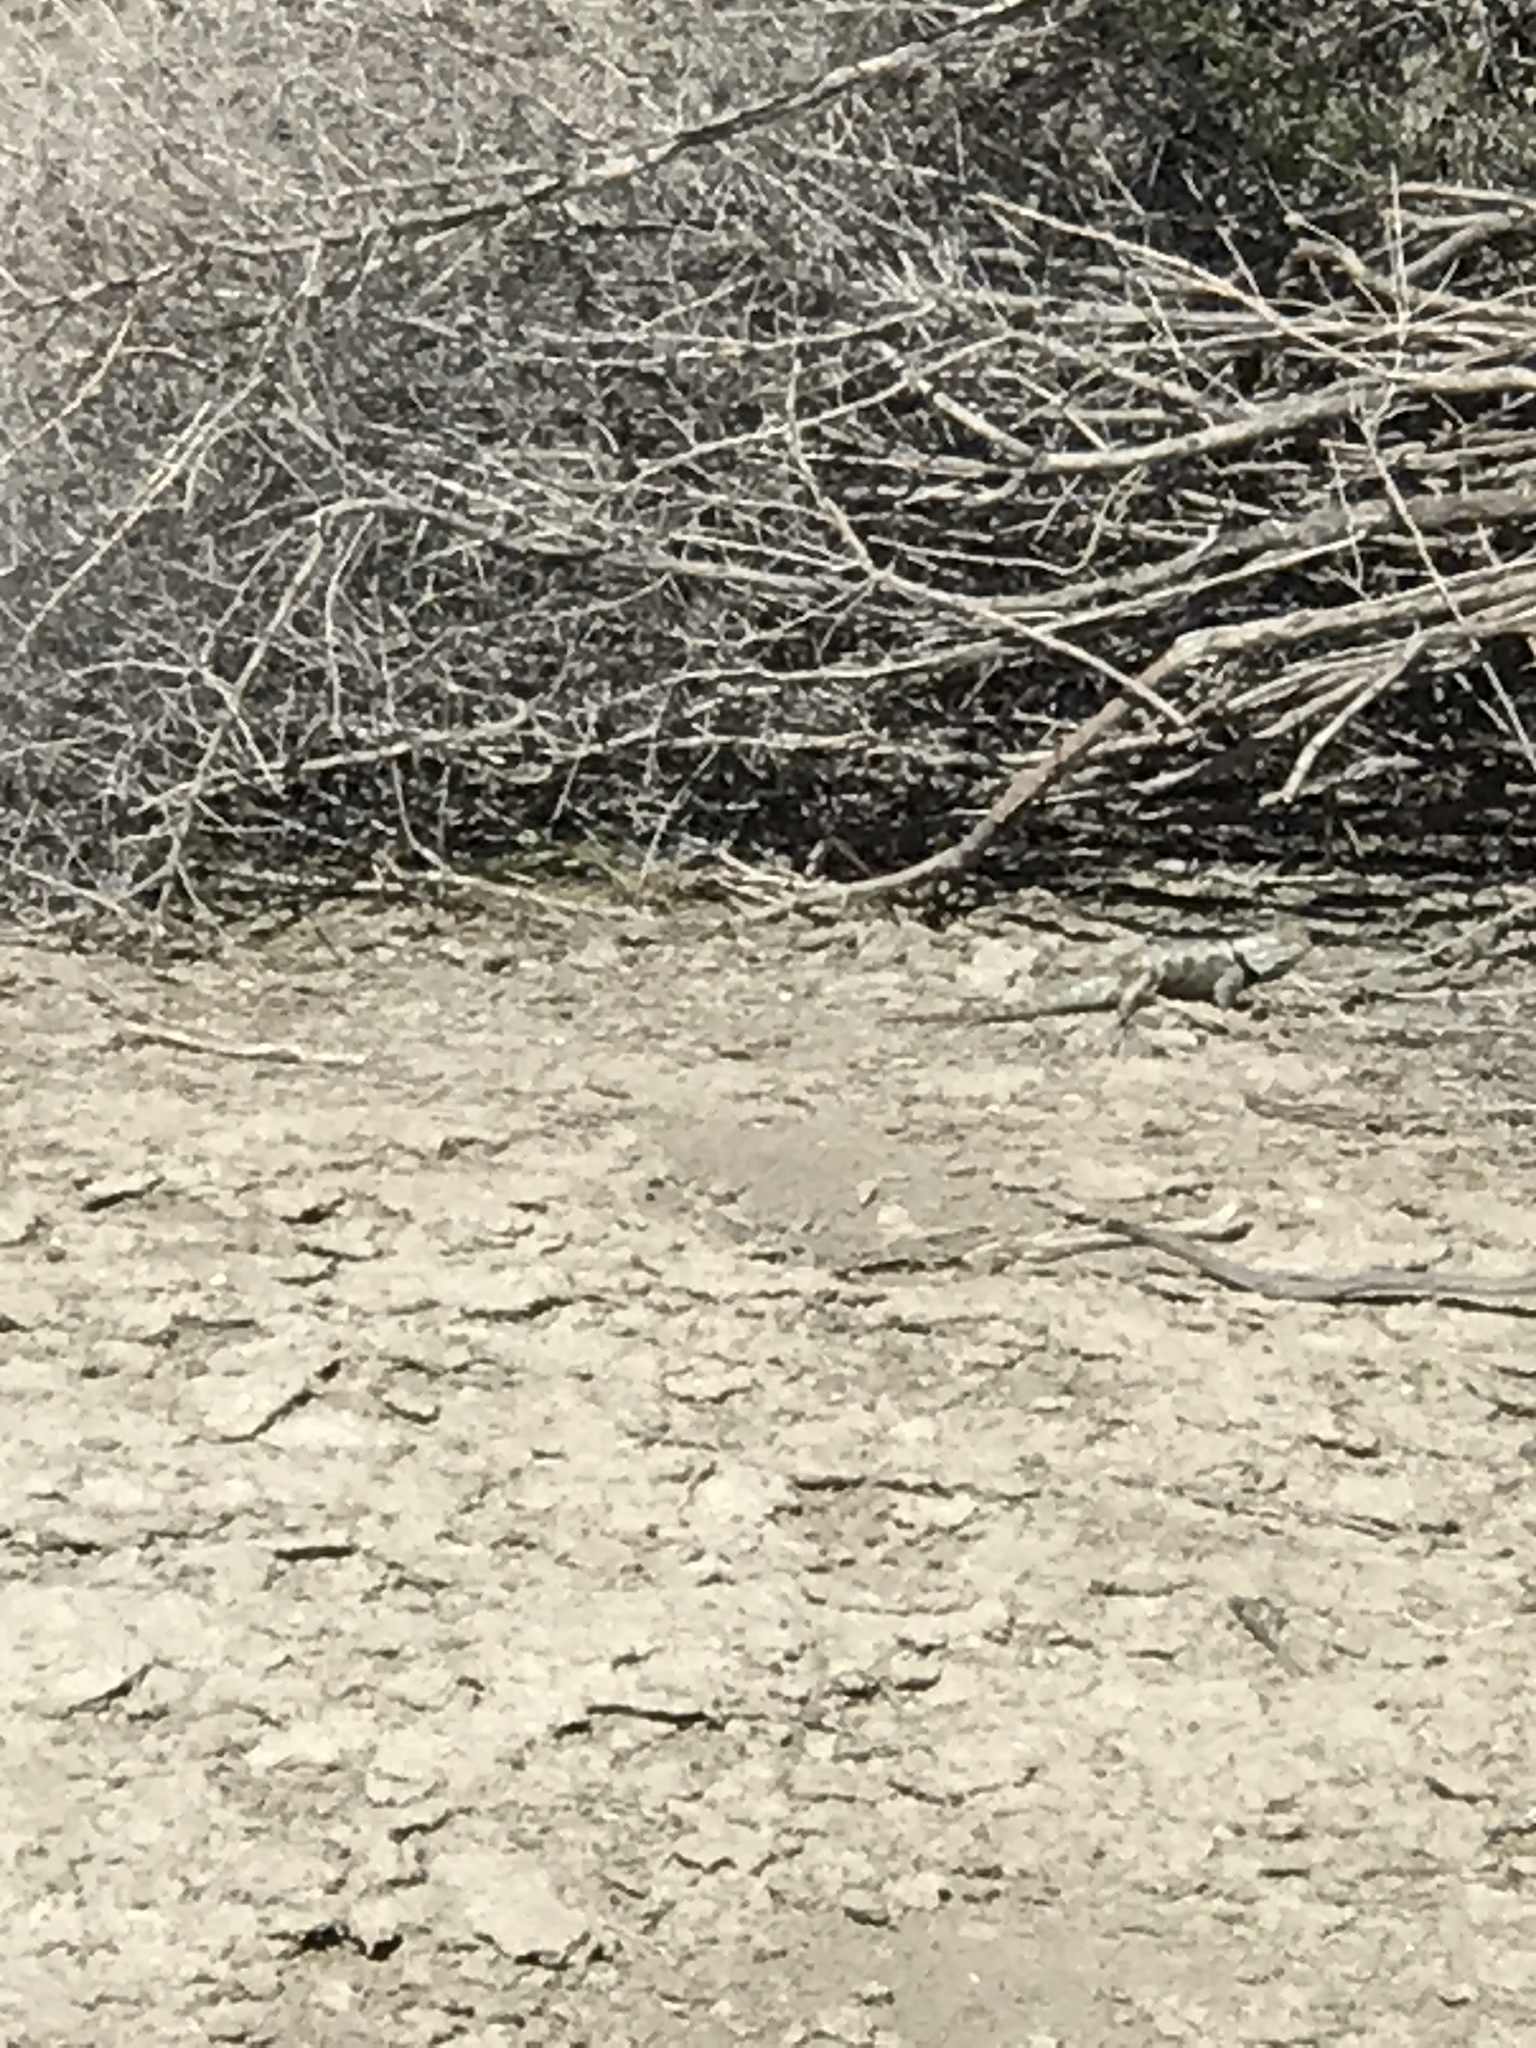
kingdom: Animalia
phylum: Chordata
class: Squamata
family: Phrynosomatidae
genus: Sceloporus
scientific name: Sceloporus uniformis
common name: Yellow-backed spiny lizard
